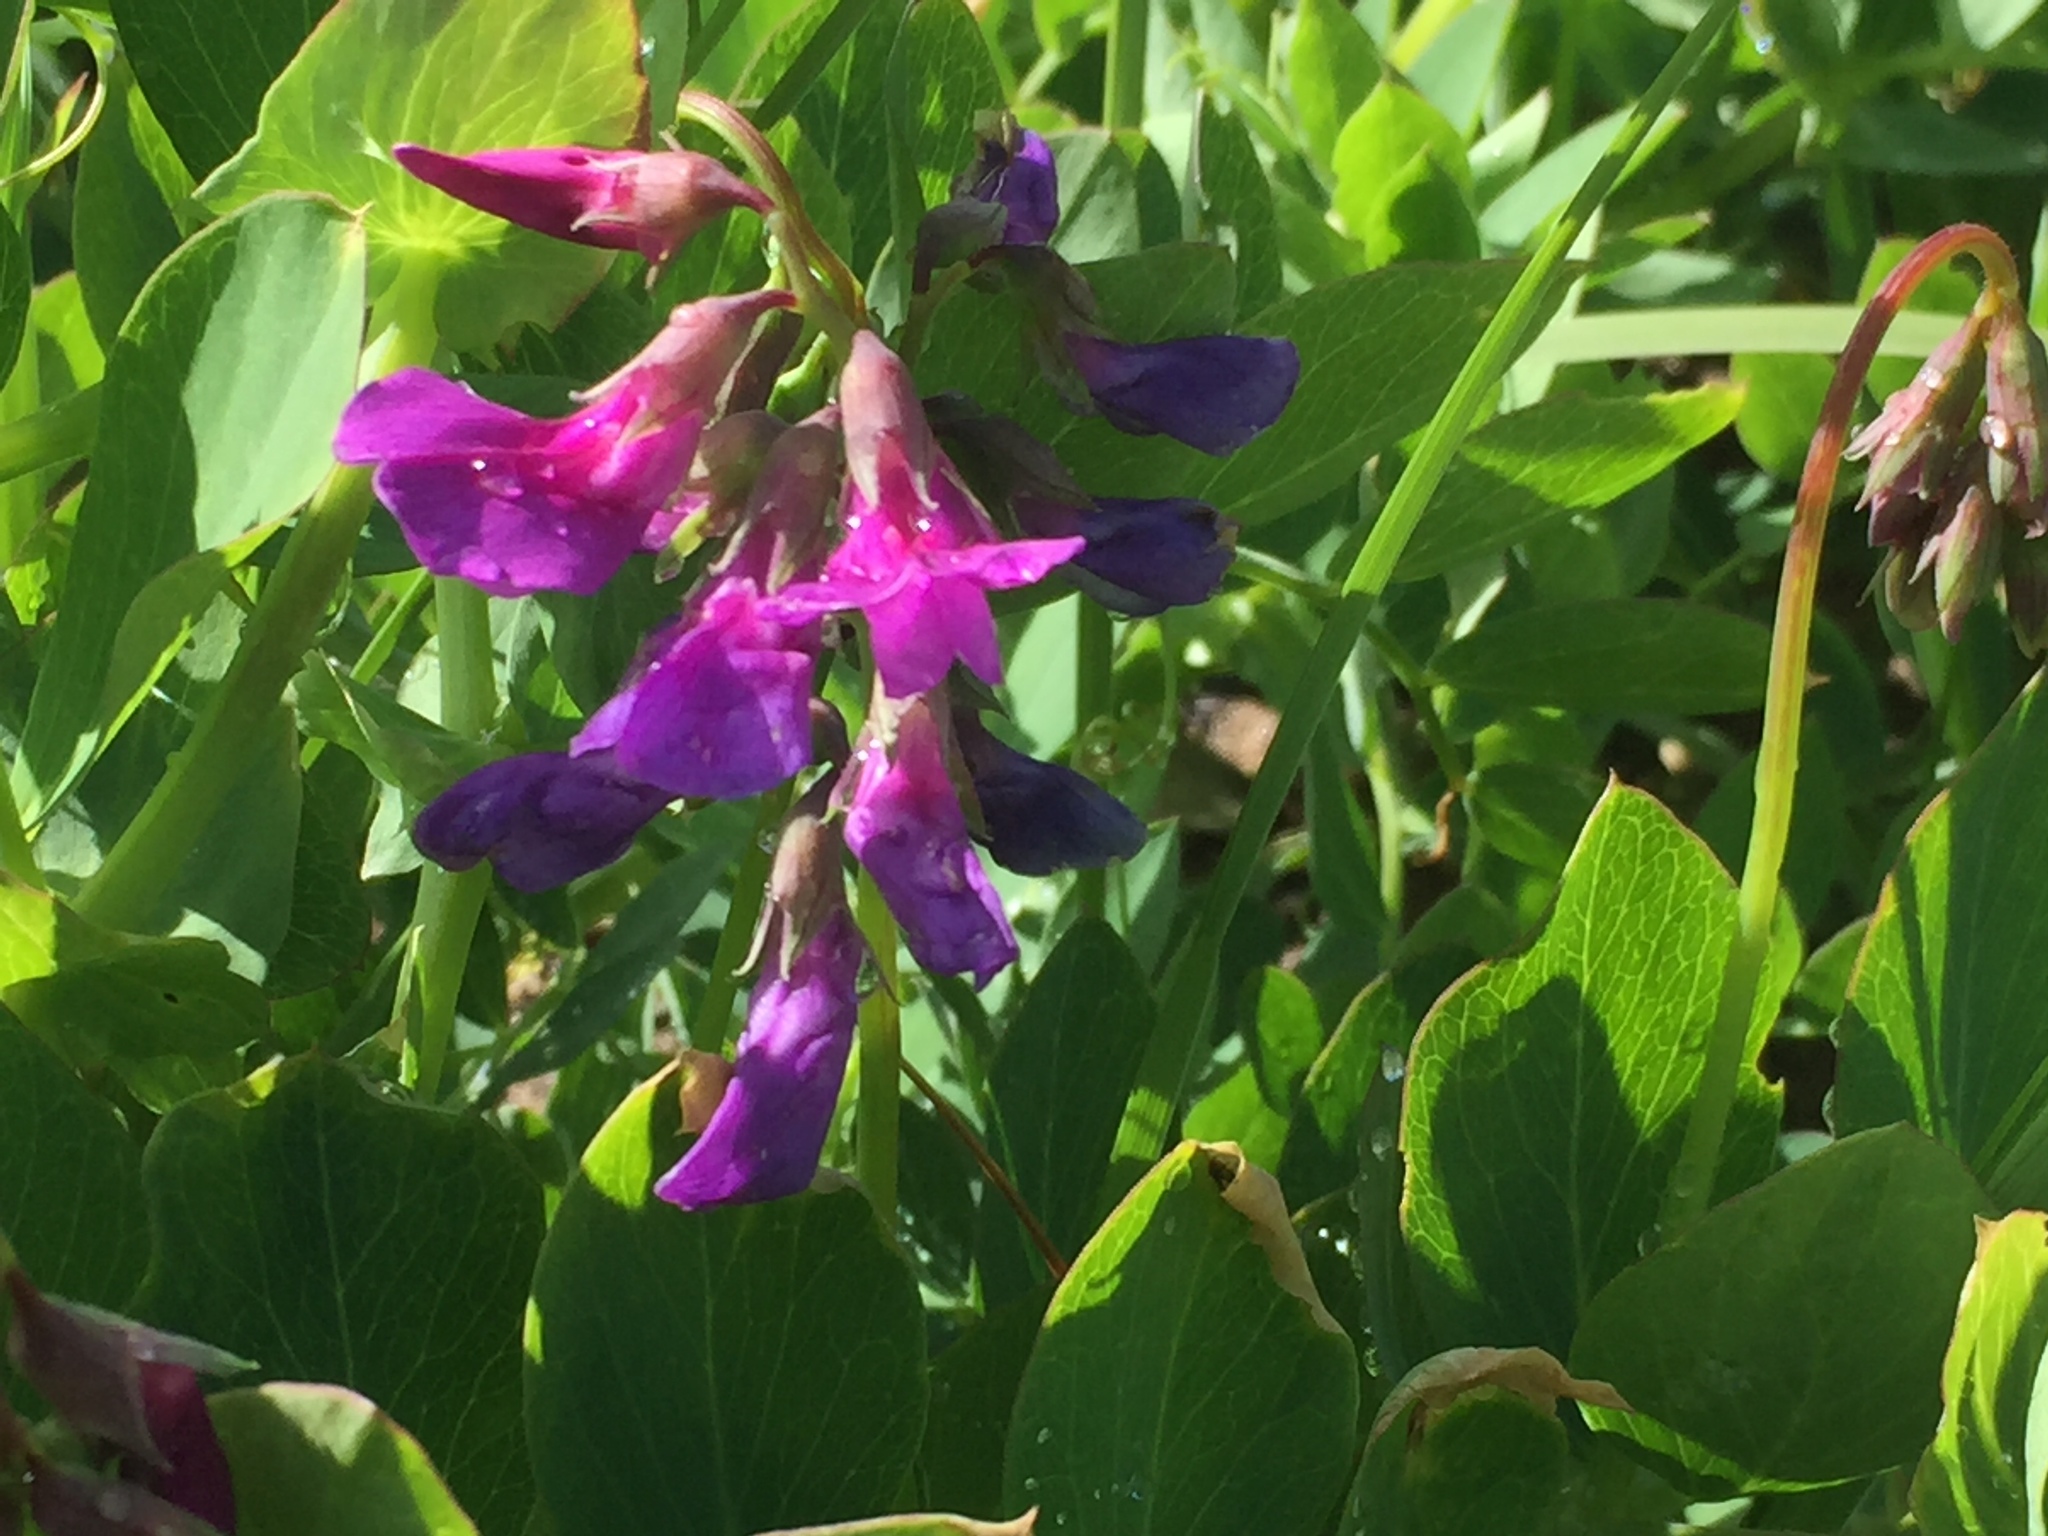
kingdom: Plantae
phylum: Tracheophyta
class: Magnoliopsida
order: Fabales
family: Fabaceae
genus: Lathyrus
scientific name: Lathyrus japonicus
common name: Sea pea
